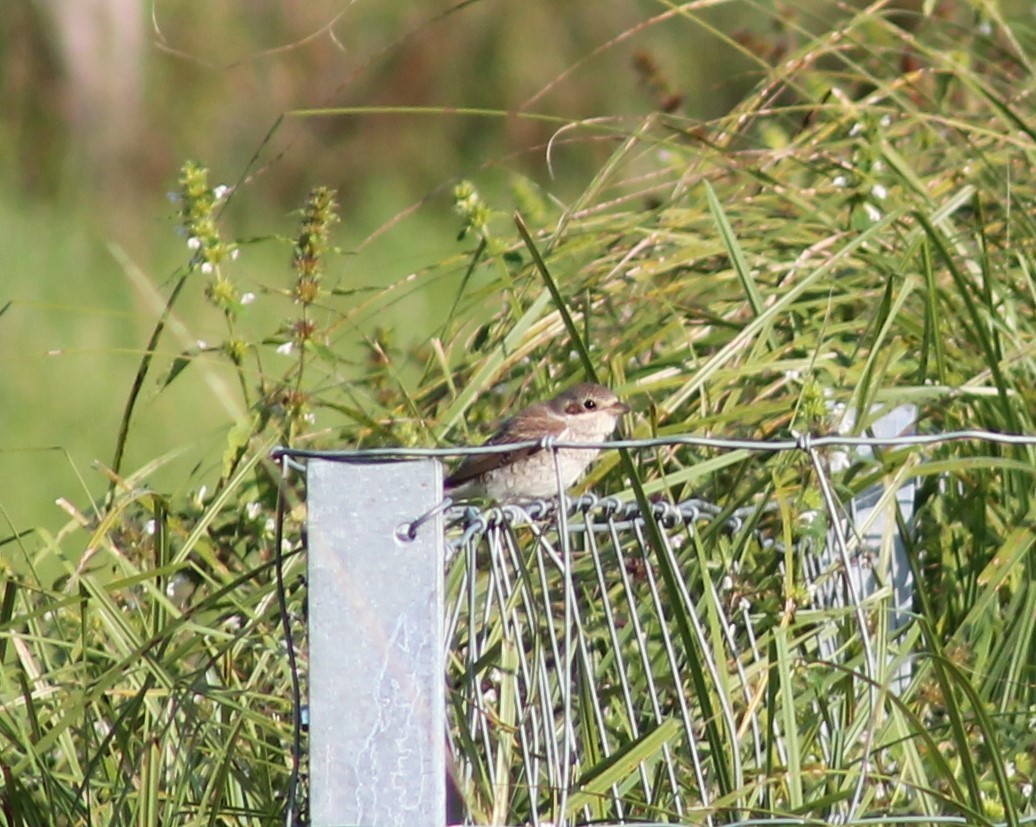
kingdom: Animalia
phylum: Chordata
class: Aves
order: Passeriformes
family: Laniidae
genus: Lanius
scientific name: Lanius collurio
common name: Red-backed shrike
